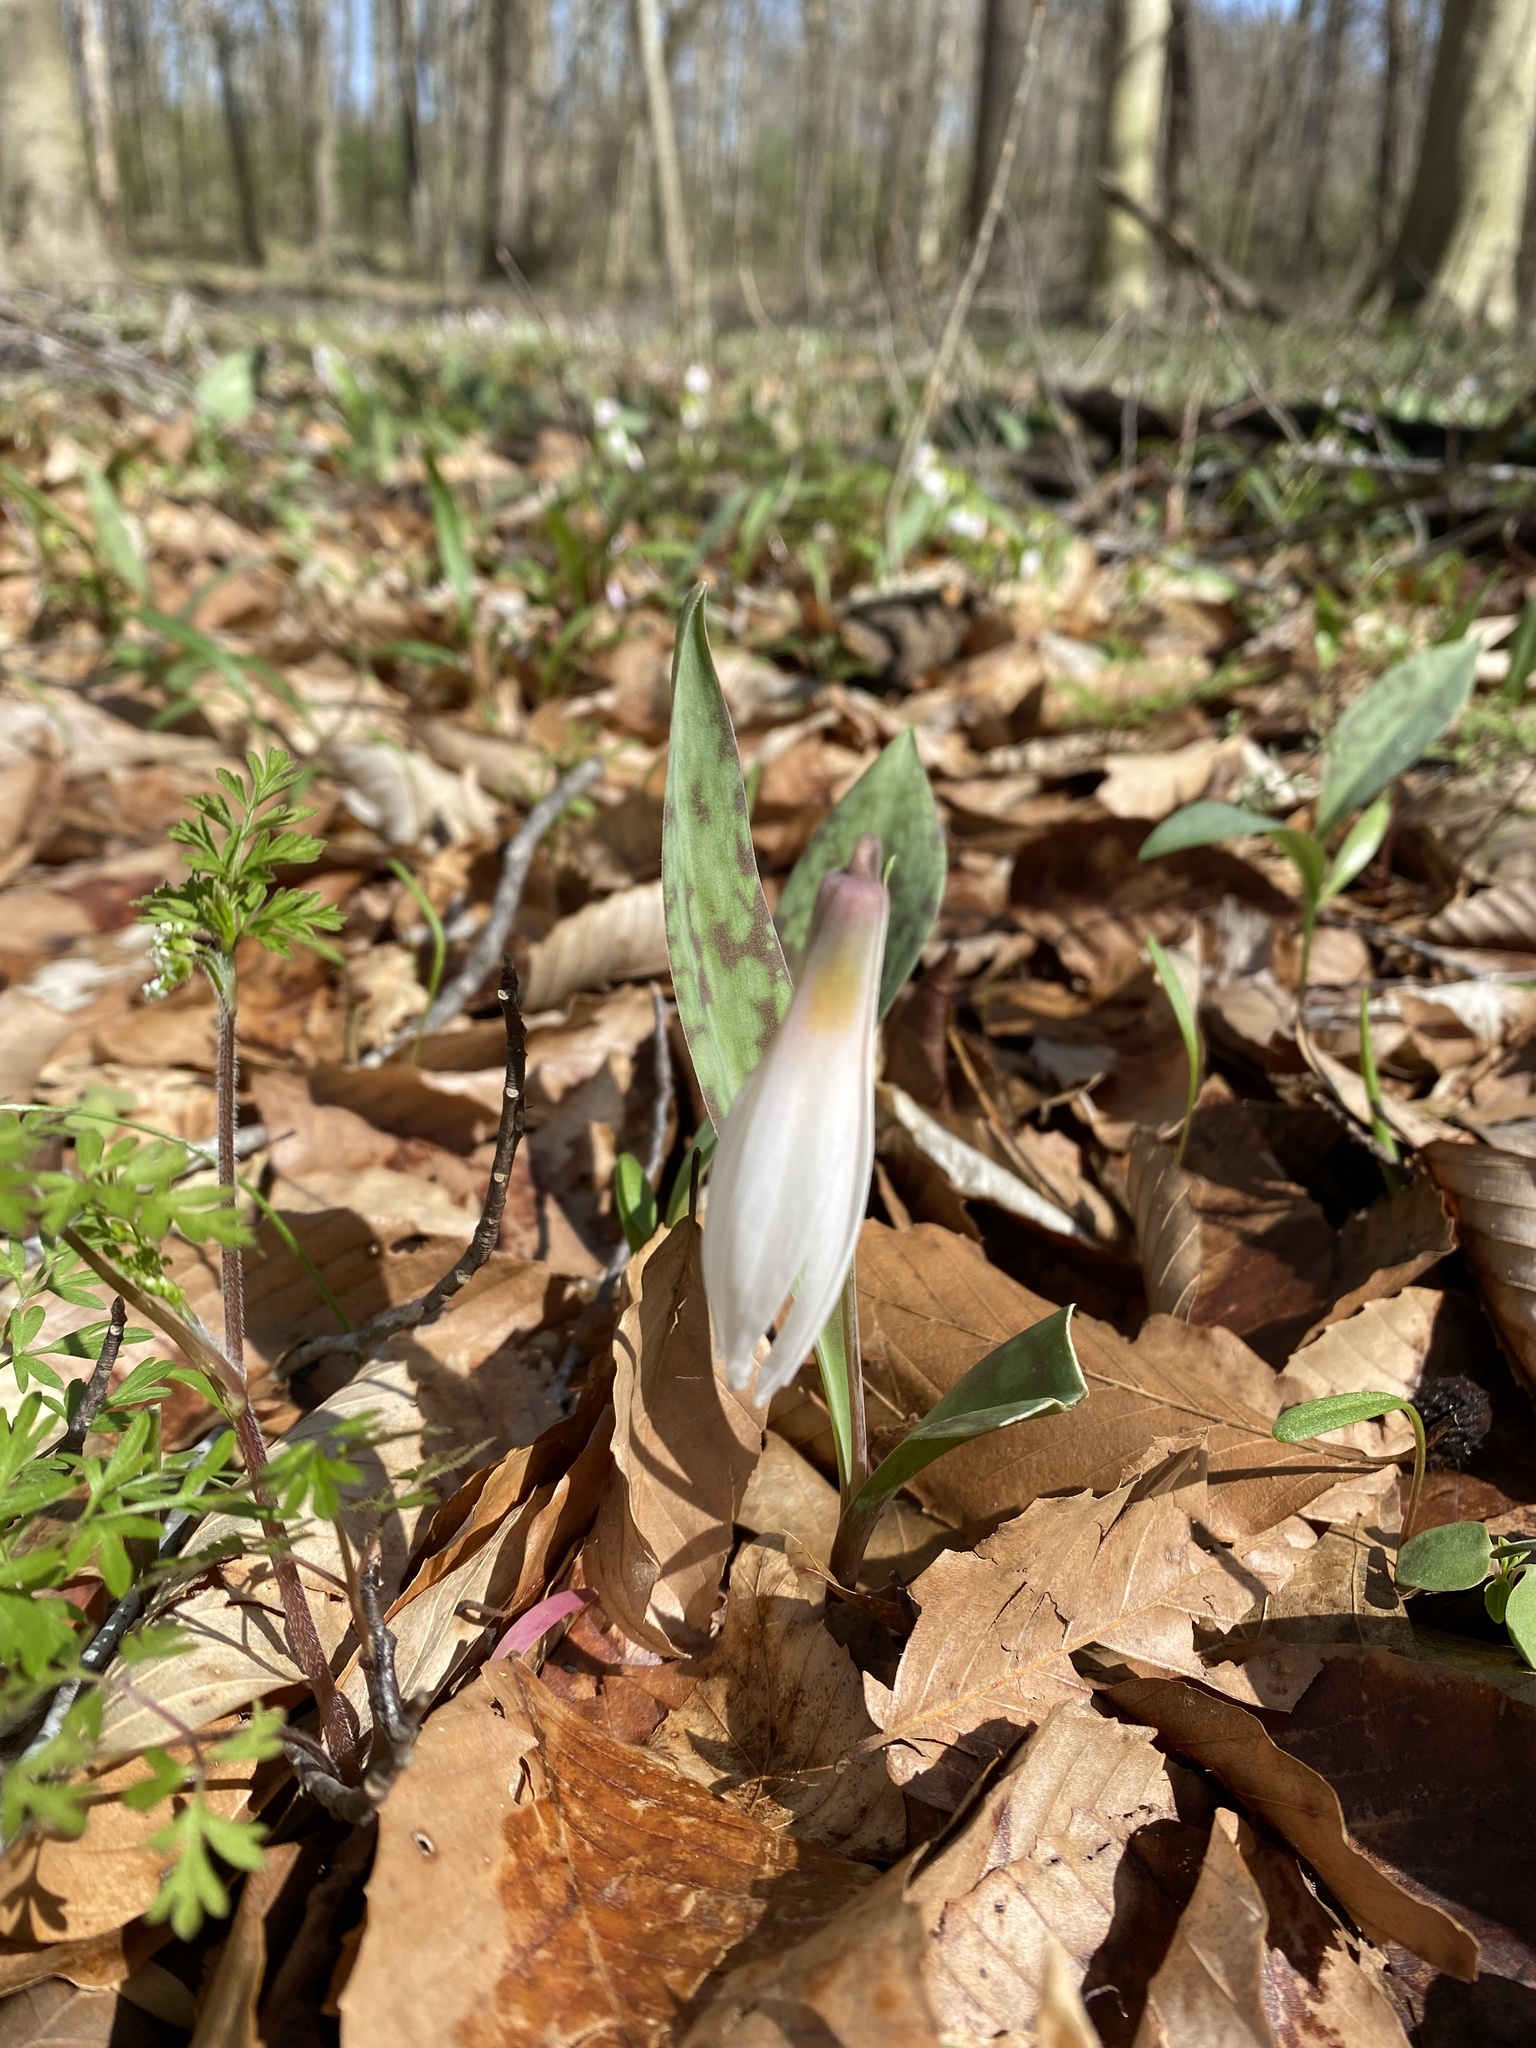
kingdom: Plantae
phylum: Tracheophyta
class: Liliopsida
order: Liliales
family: Liliaceae
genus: Erythronium
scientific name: Erythronium albidum
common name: White trout-lily
